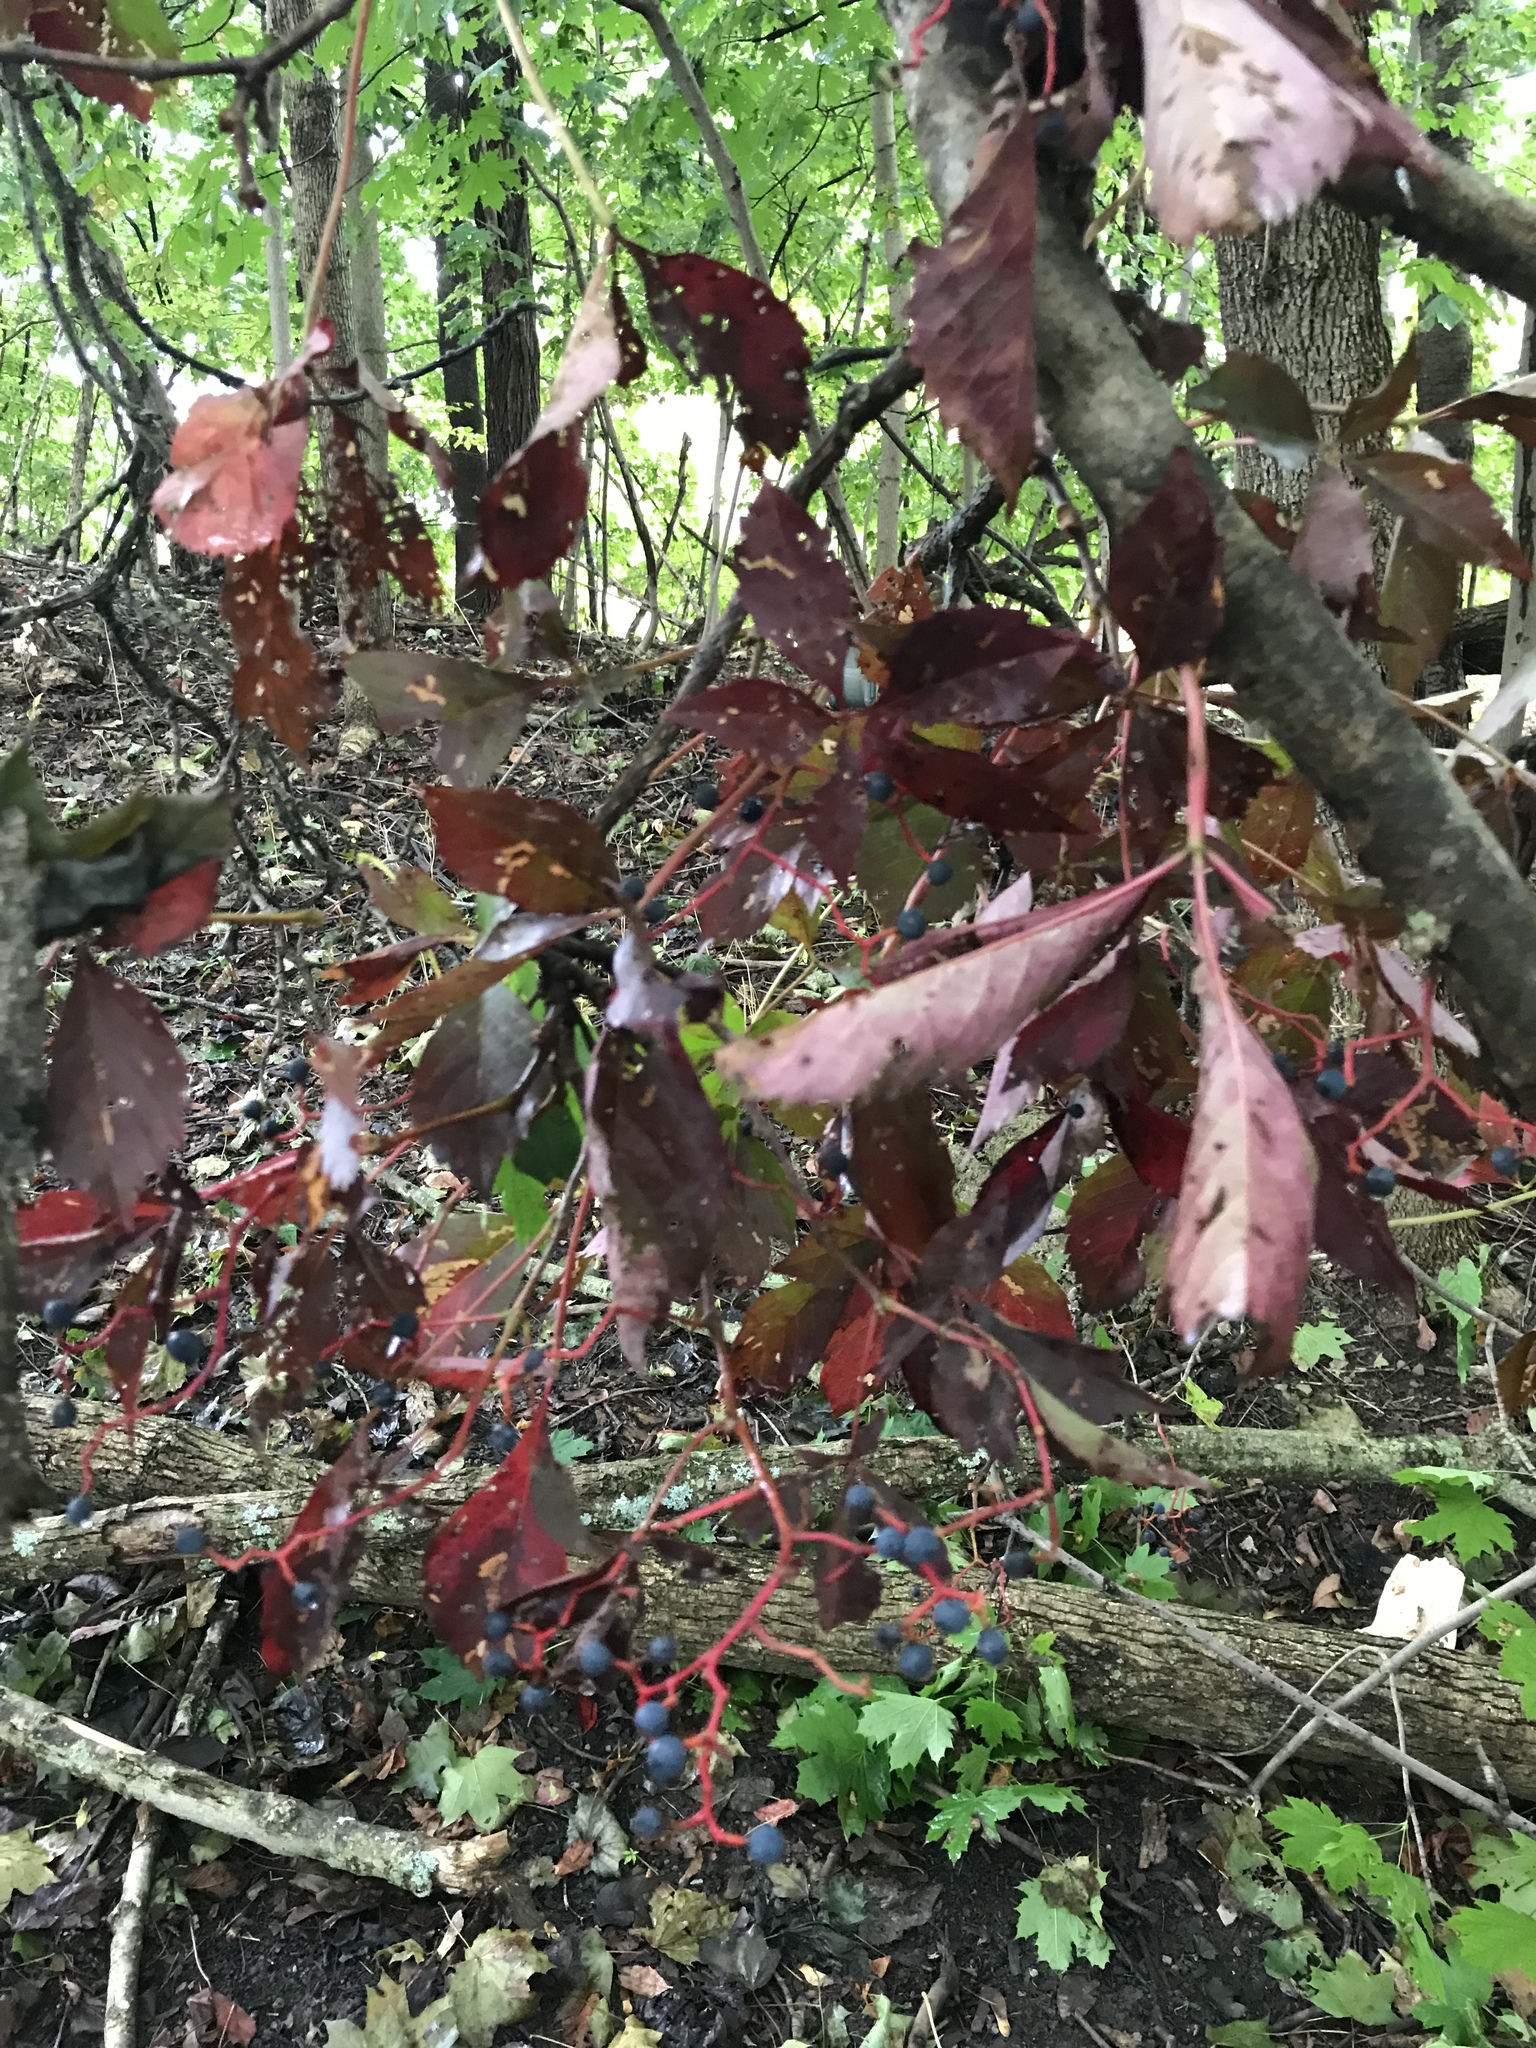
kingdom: Plantae
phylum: Tracheophyta
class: Magnoliopsida
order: Vitales
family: Vitaceae
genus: Parthenocissus
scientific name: Parthenocissus quinquefolia
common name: Virginia-creeper
